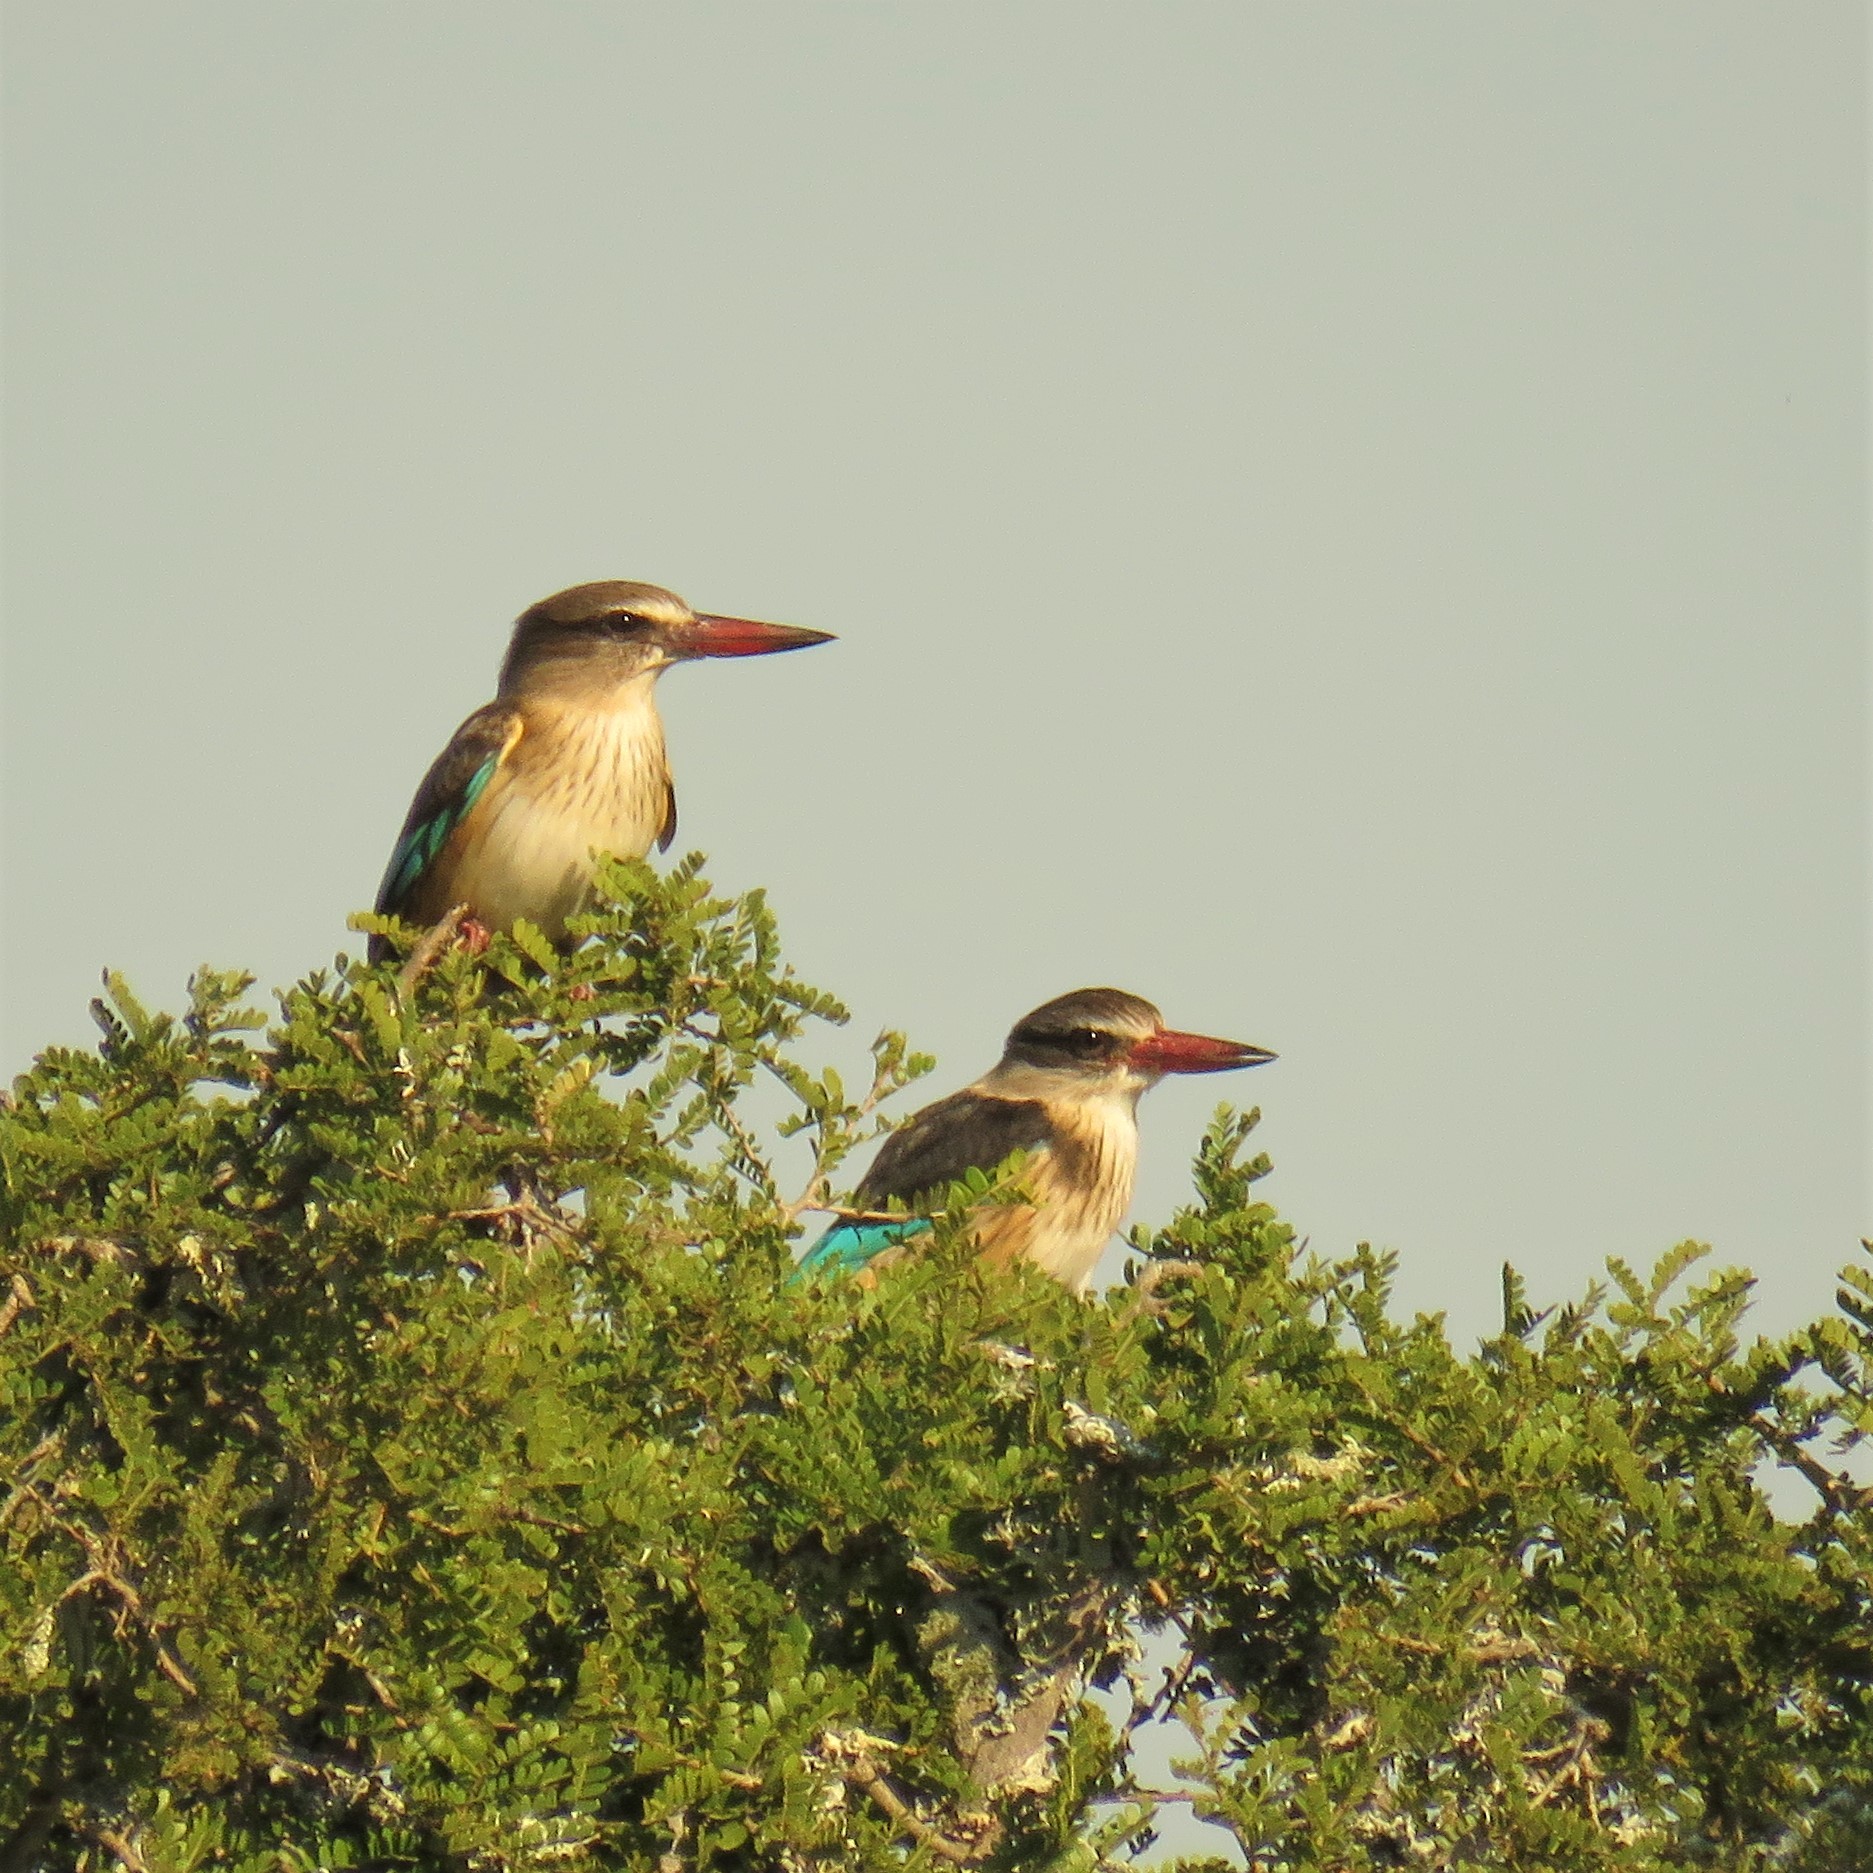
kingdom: Animalia
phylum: Chordata
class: Aves
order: Coraciiformes
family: Alcedinidae
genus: Halcyon
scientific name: Halcyon albiventris
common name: Brown-hooded kingfisher
